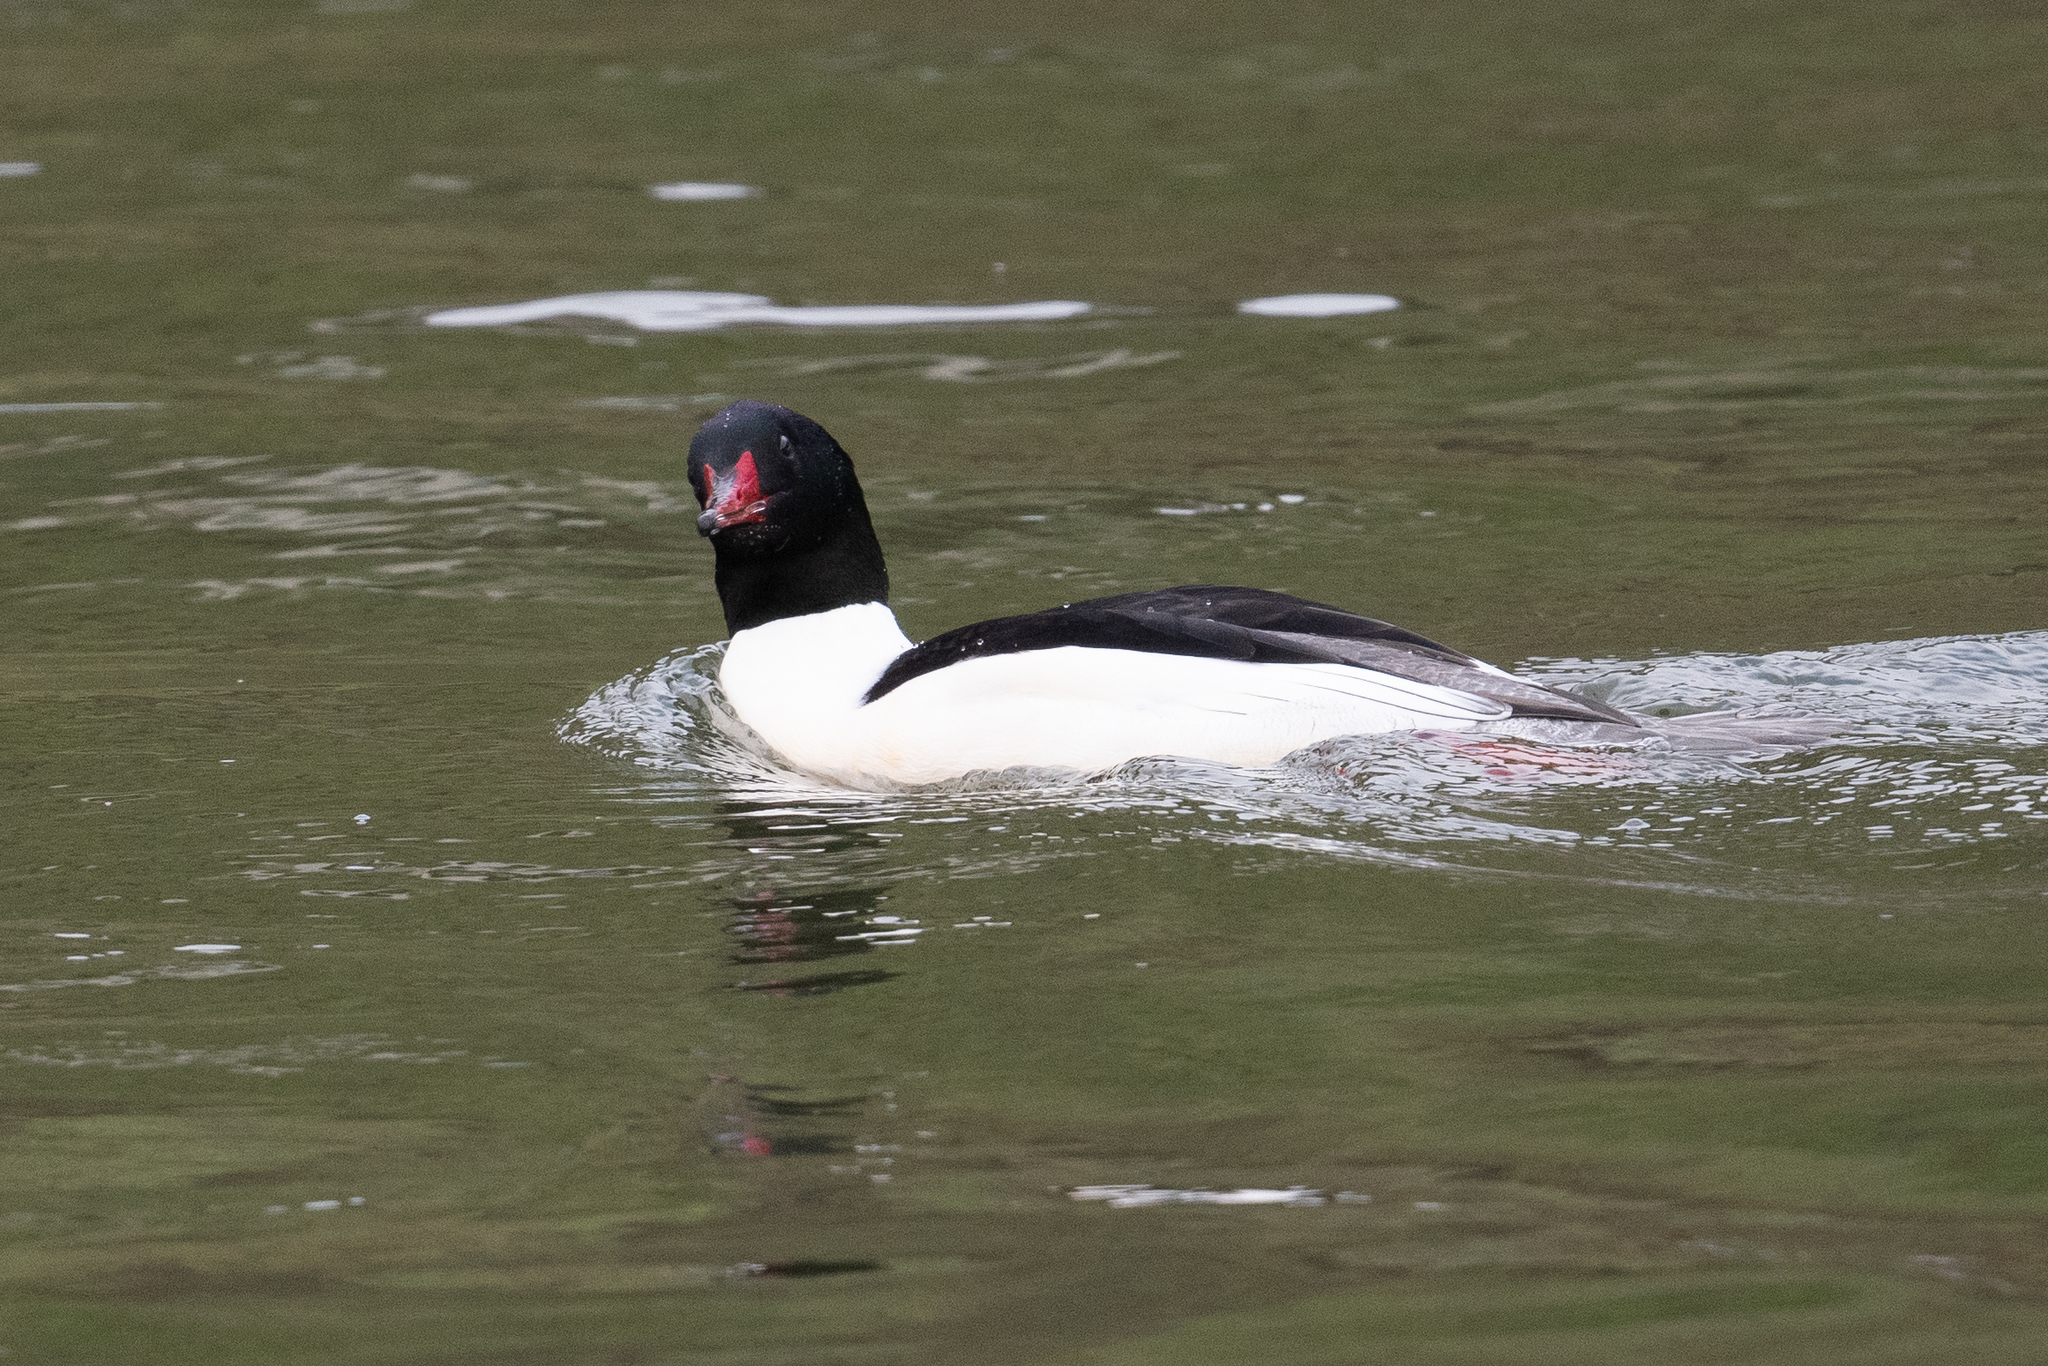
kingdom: Animalia
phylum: Chordata
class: Aves
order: Anseriformes
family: Anatidae
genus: Mergus
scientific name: Mergus merganser
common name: Common merganser
